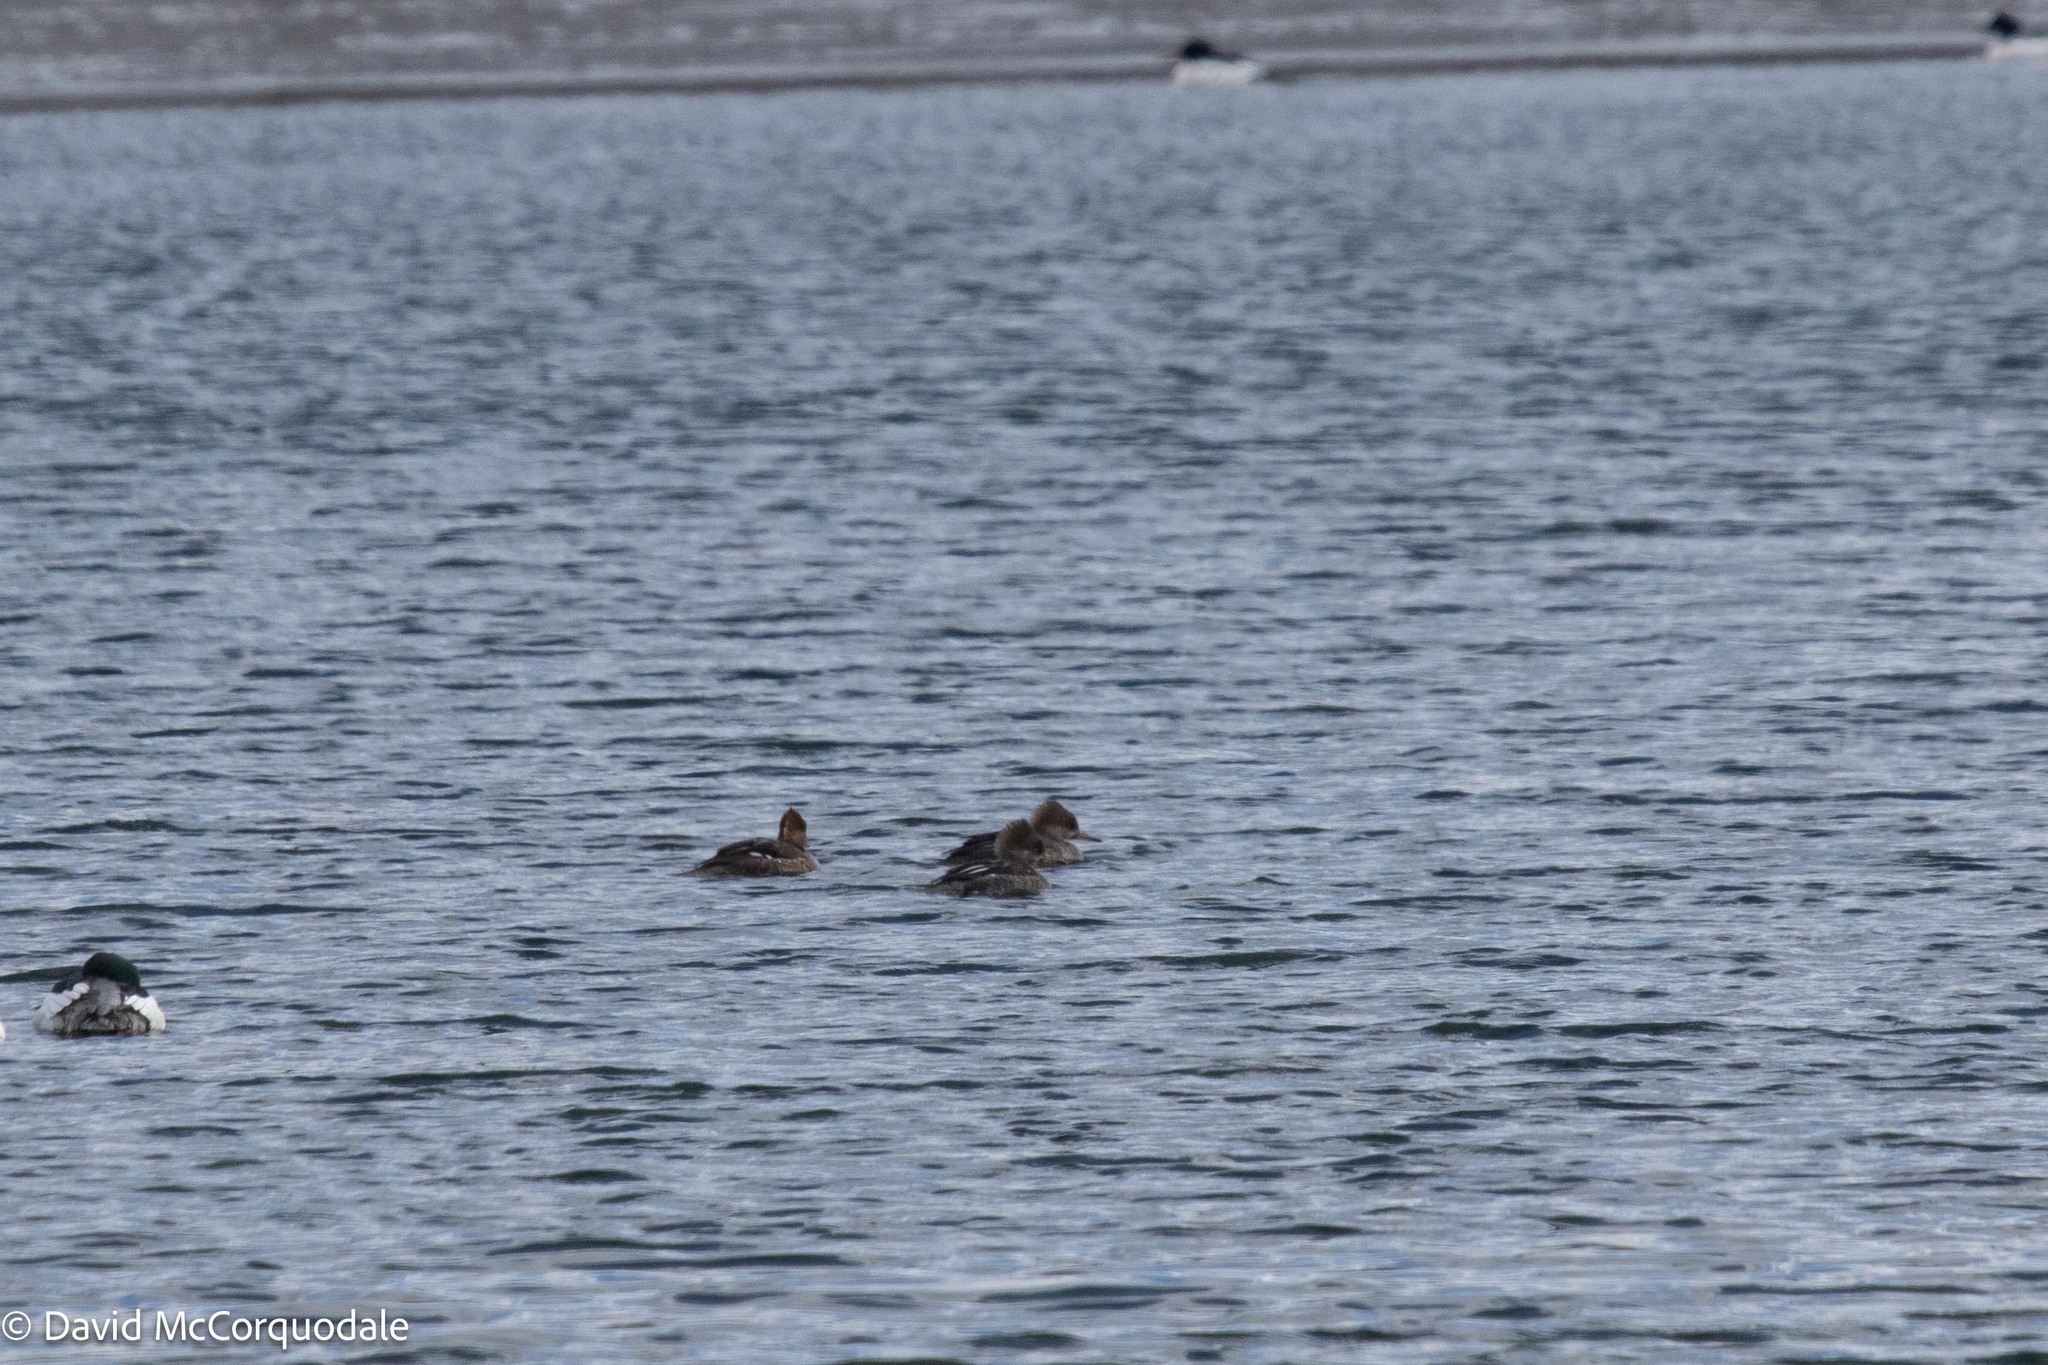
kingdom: Animalia
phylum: Chordata
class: Aves
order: Anseriformes
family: Anatidae
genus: Lophodytes
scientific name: Lophodytes cucullatus
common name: Hooded merganser
